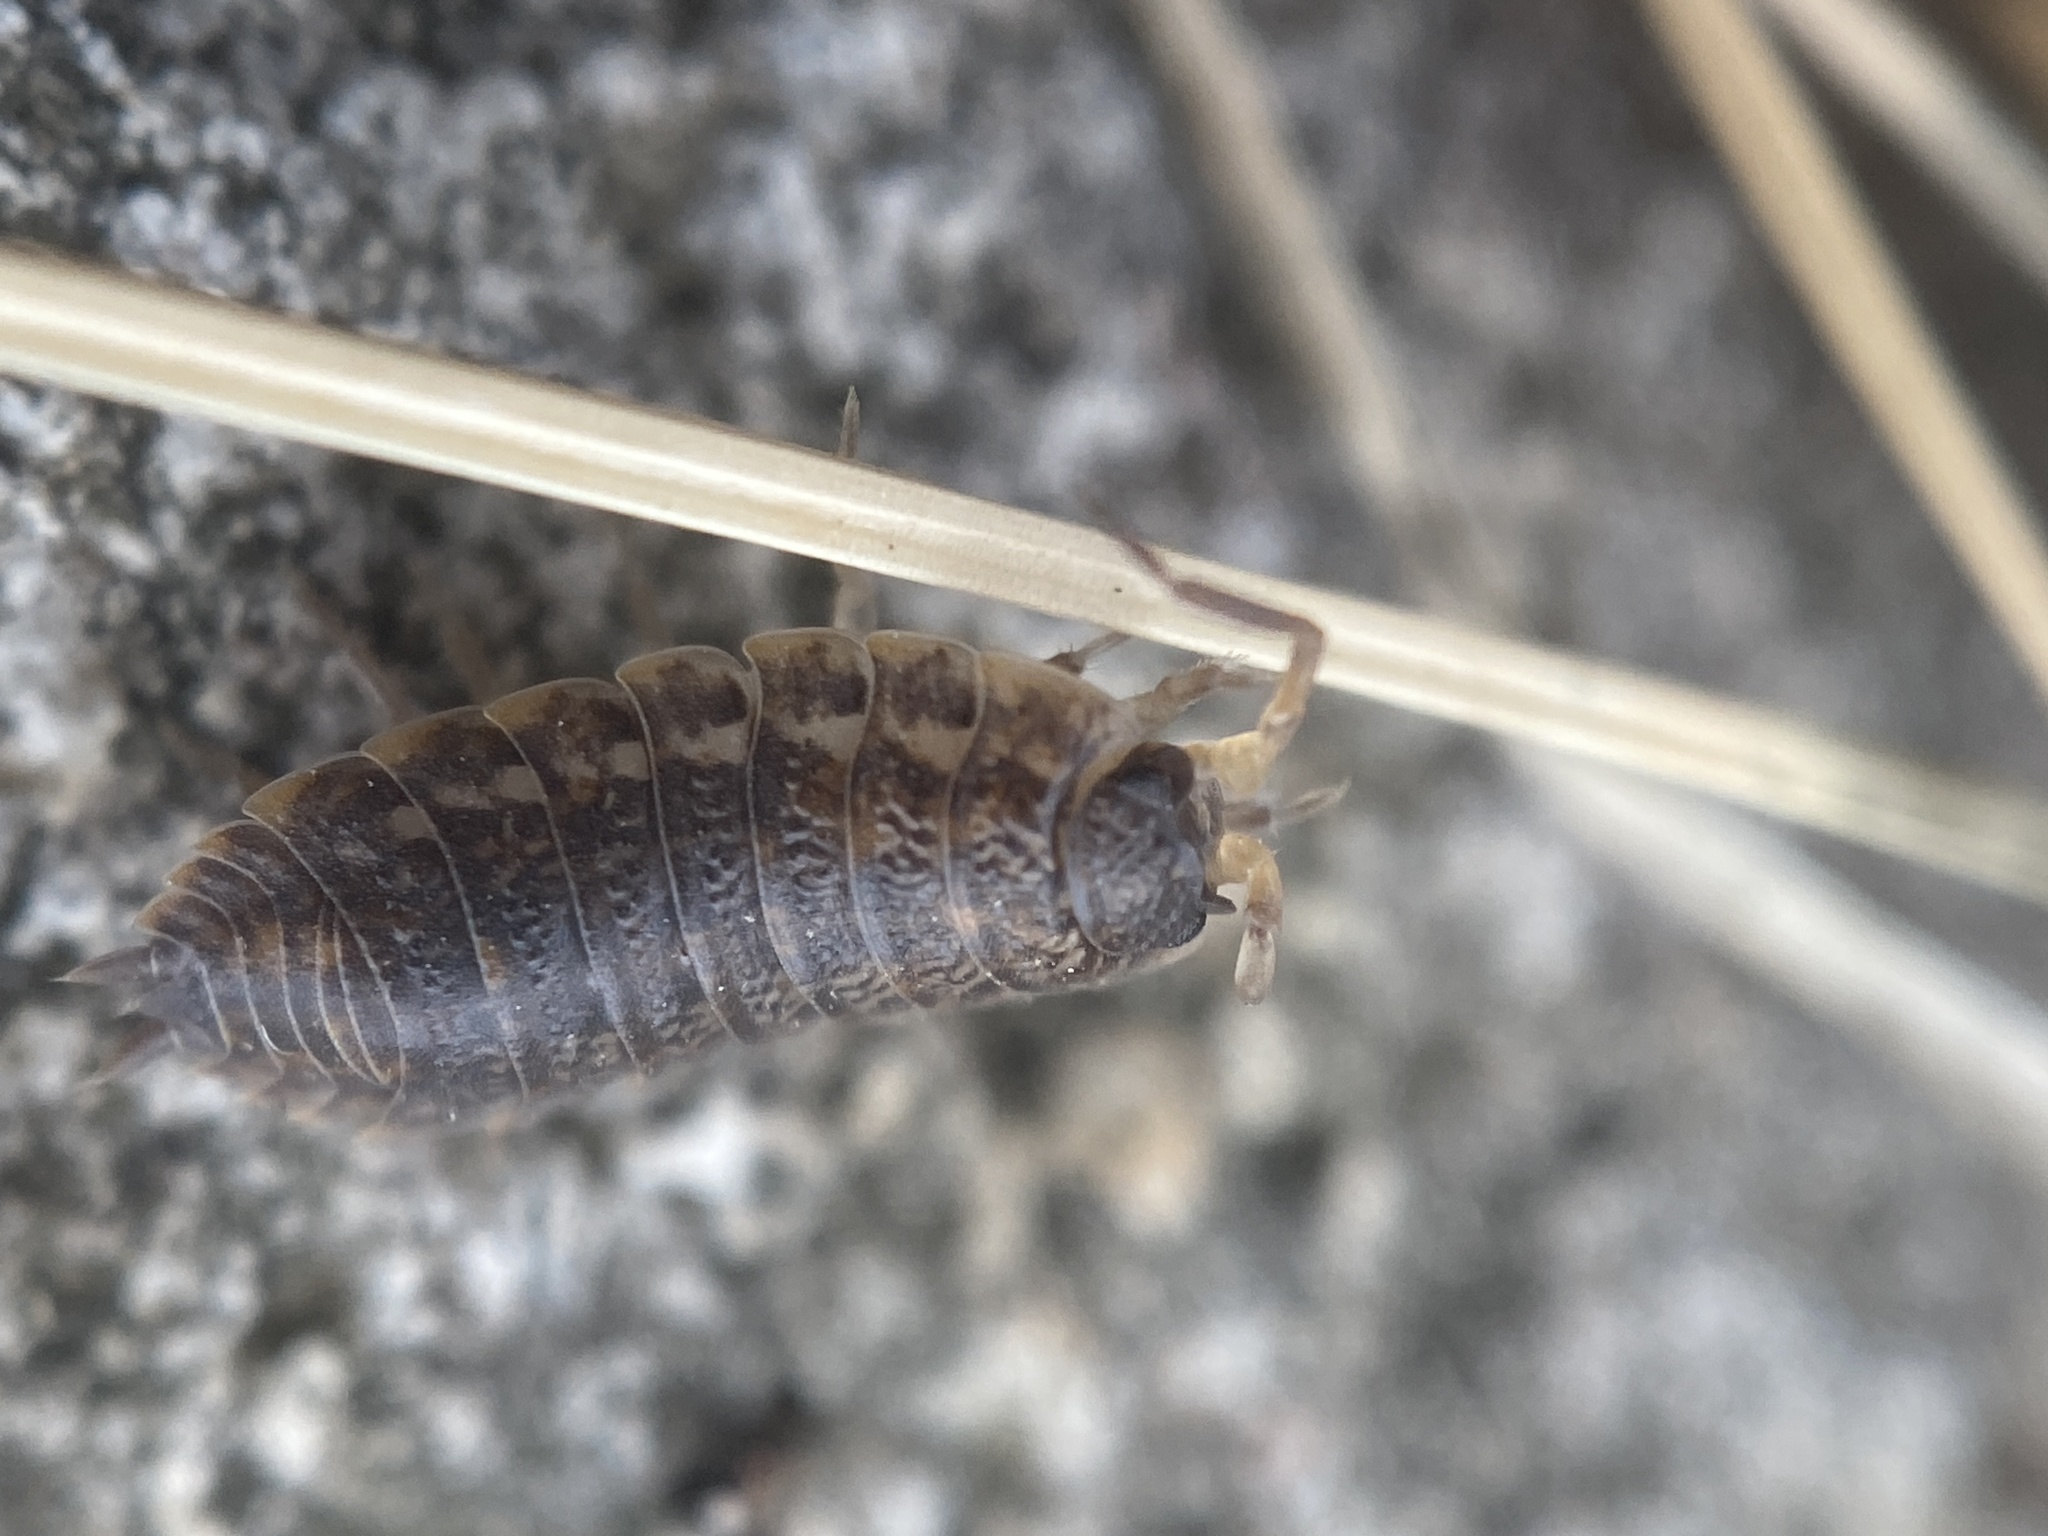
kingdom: Animalia
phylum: Arthropoda
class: Malacostraca
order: Isopoda
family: Trachelipodidae
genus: Trachelipus
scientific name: Trachelipus rathkii
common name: Isopod
